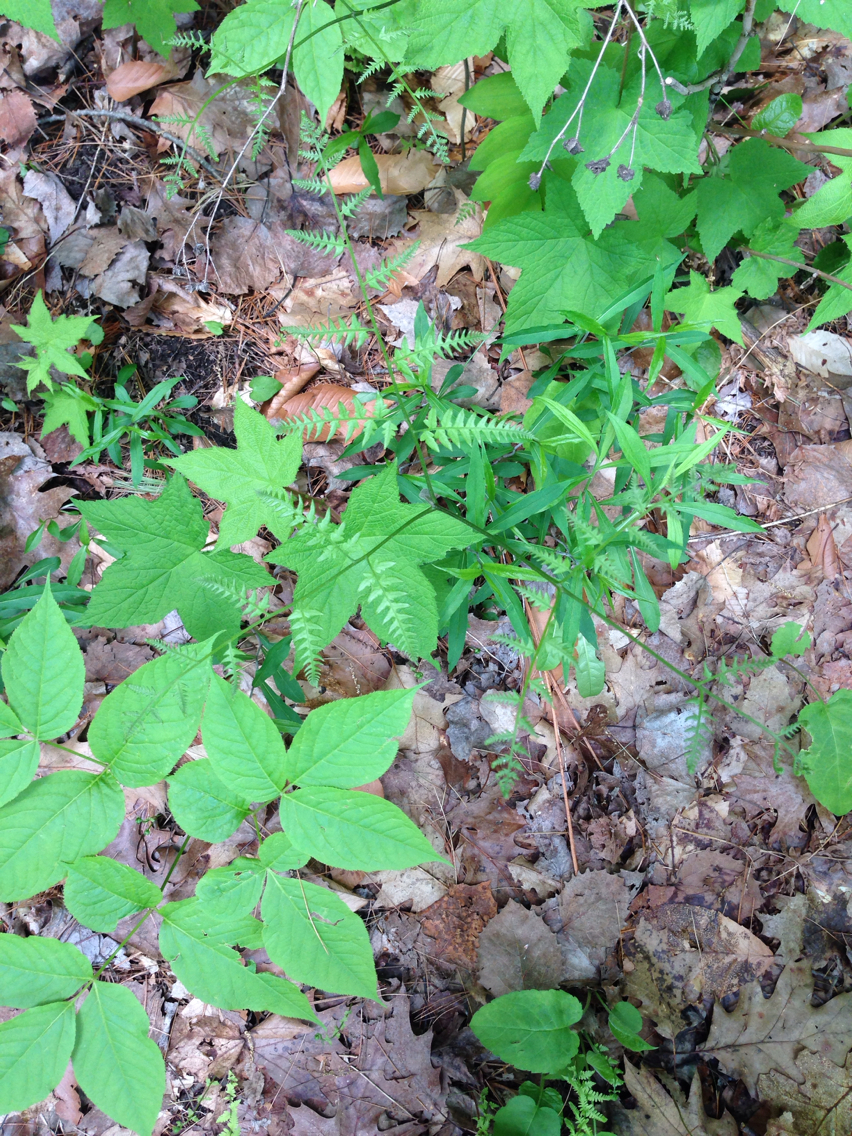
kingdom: Plantae
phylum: Tracheophyta
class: Polypodiopsida
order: Polypodiales
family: Dennstaedtiaceae
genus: Pteridium
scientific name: Pteridium aquilinum
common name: Bracken
